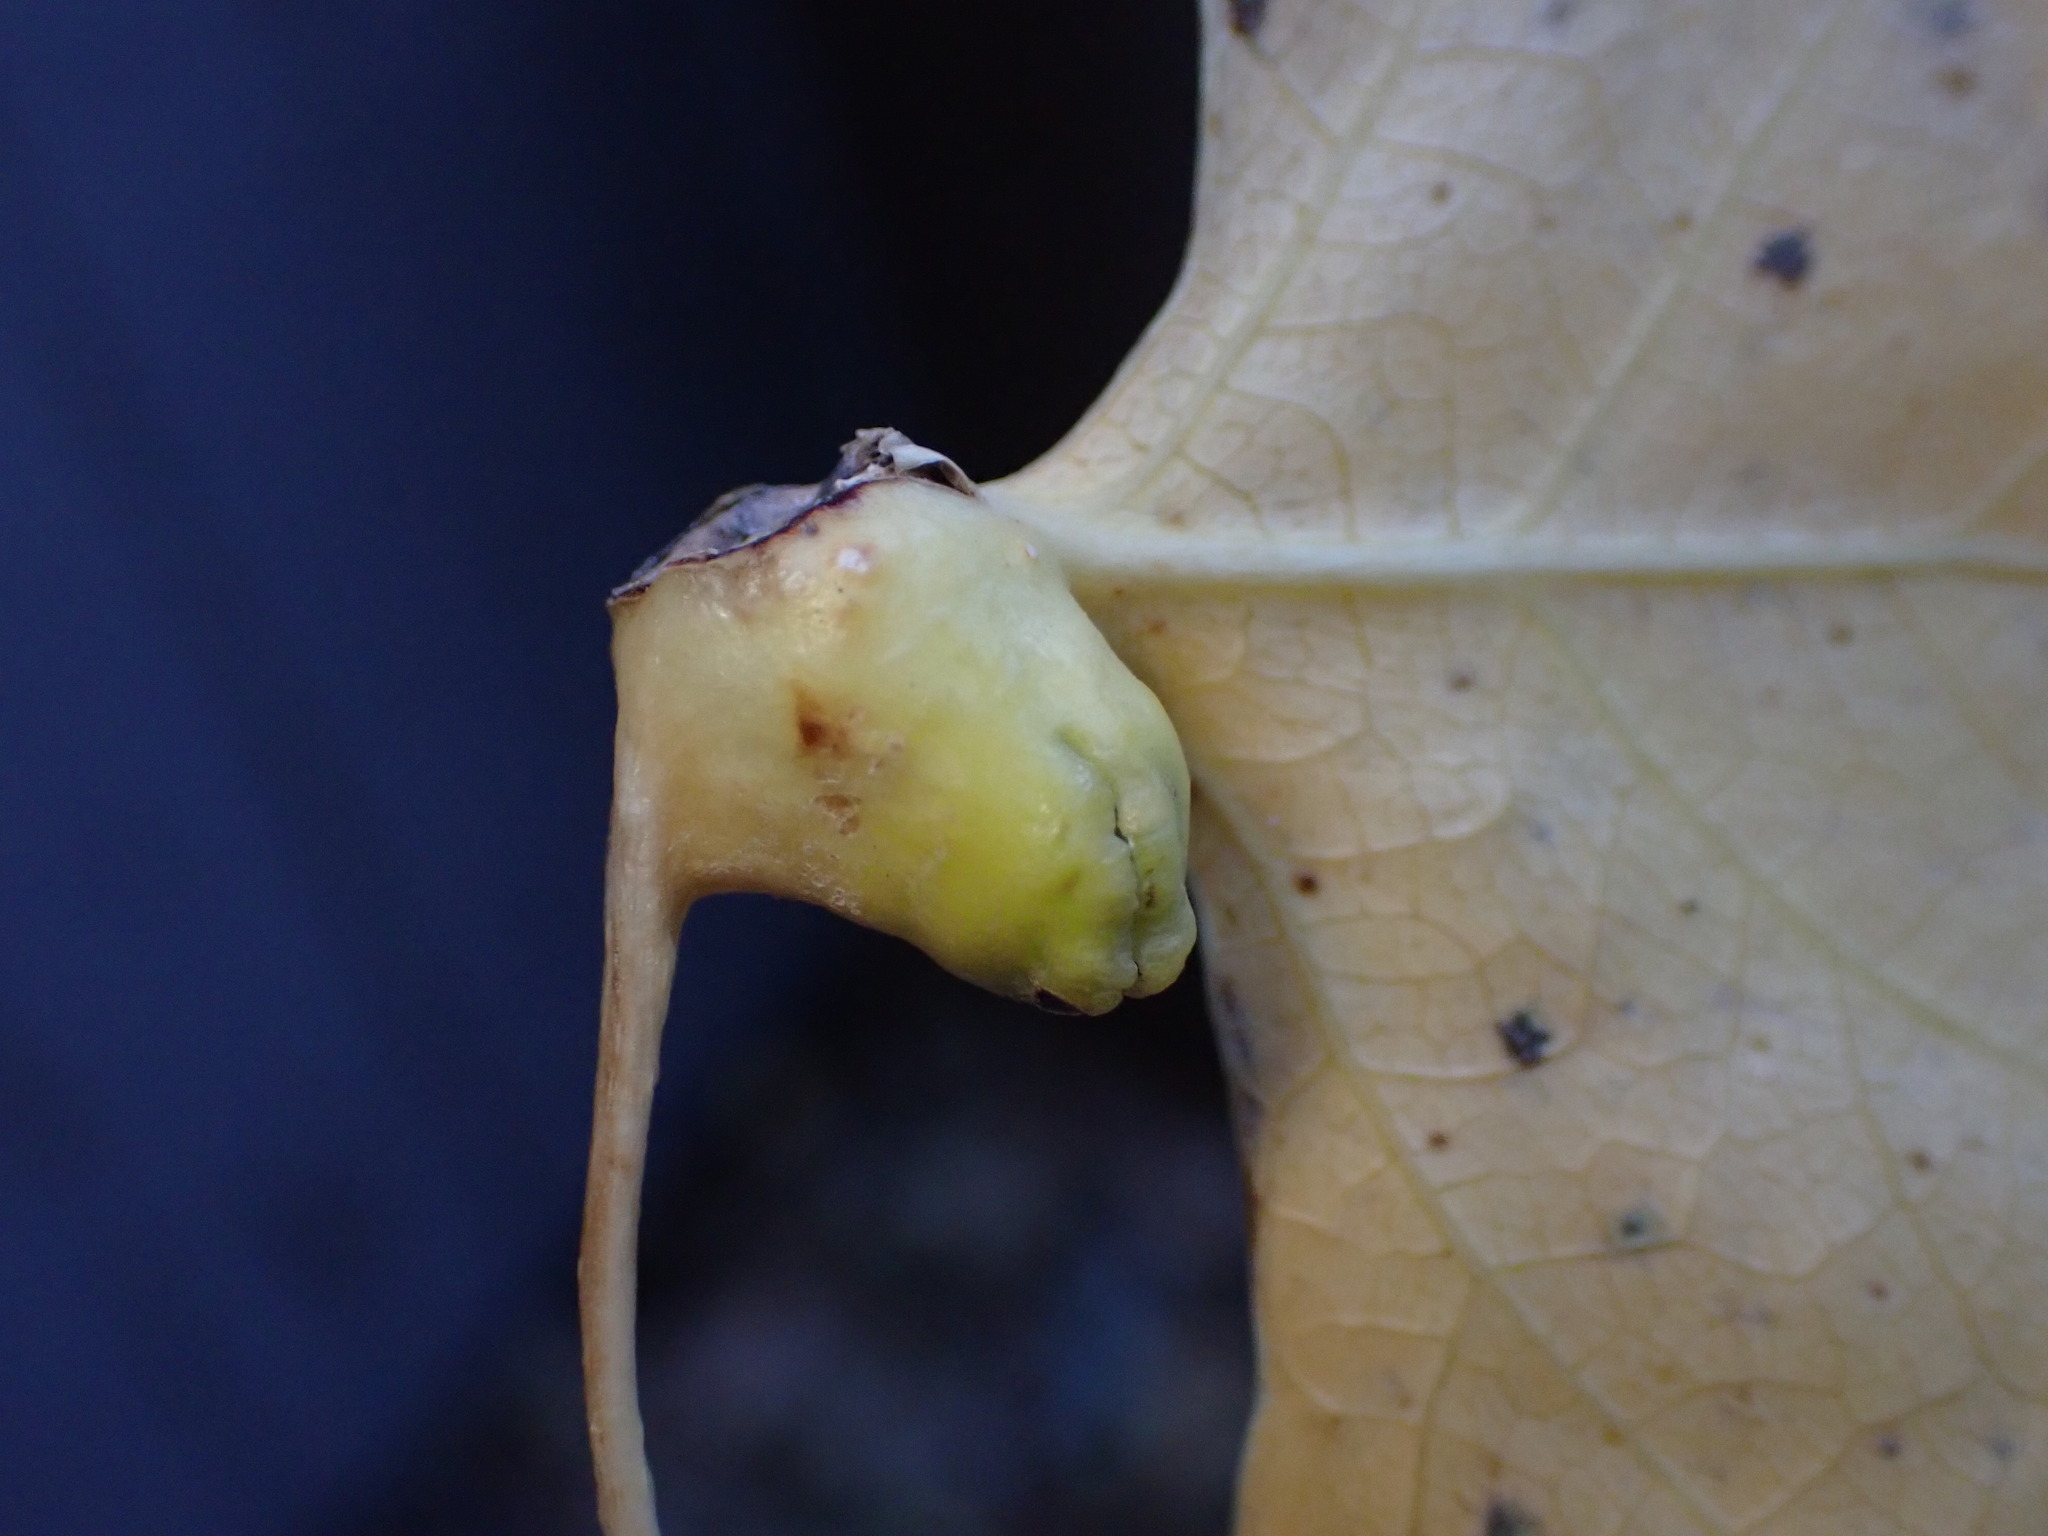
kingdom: Animalia
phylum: Arthropoda
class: Insecta
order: Hemiptera
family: Aphididae
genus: Pemphigus
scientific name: Pemphigus obesinymphae
